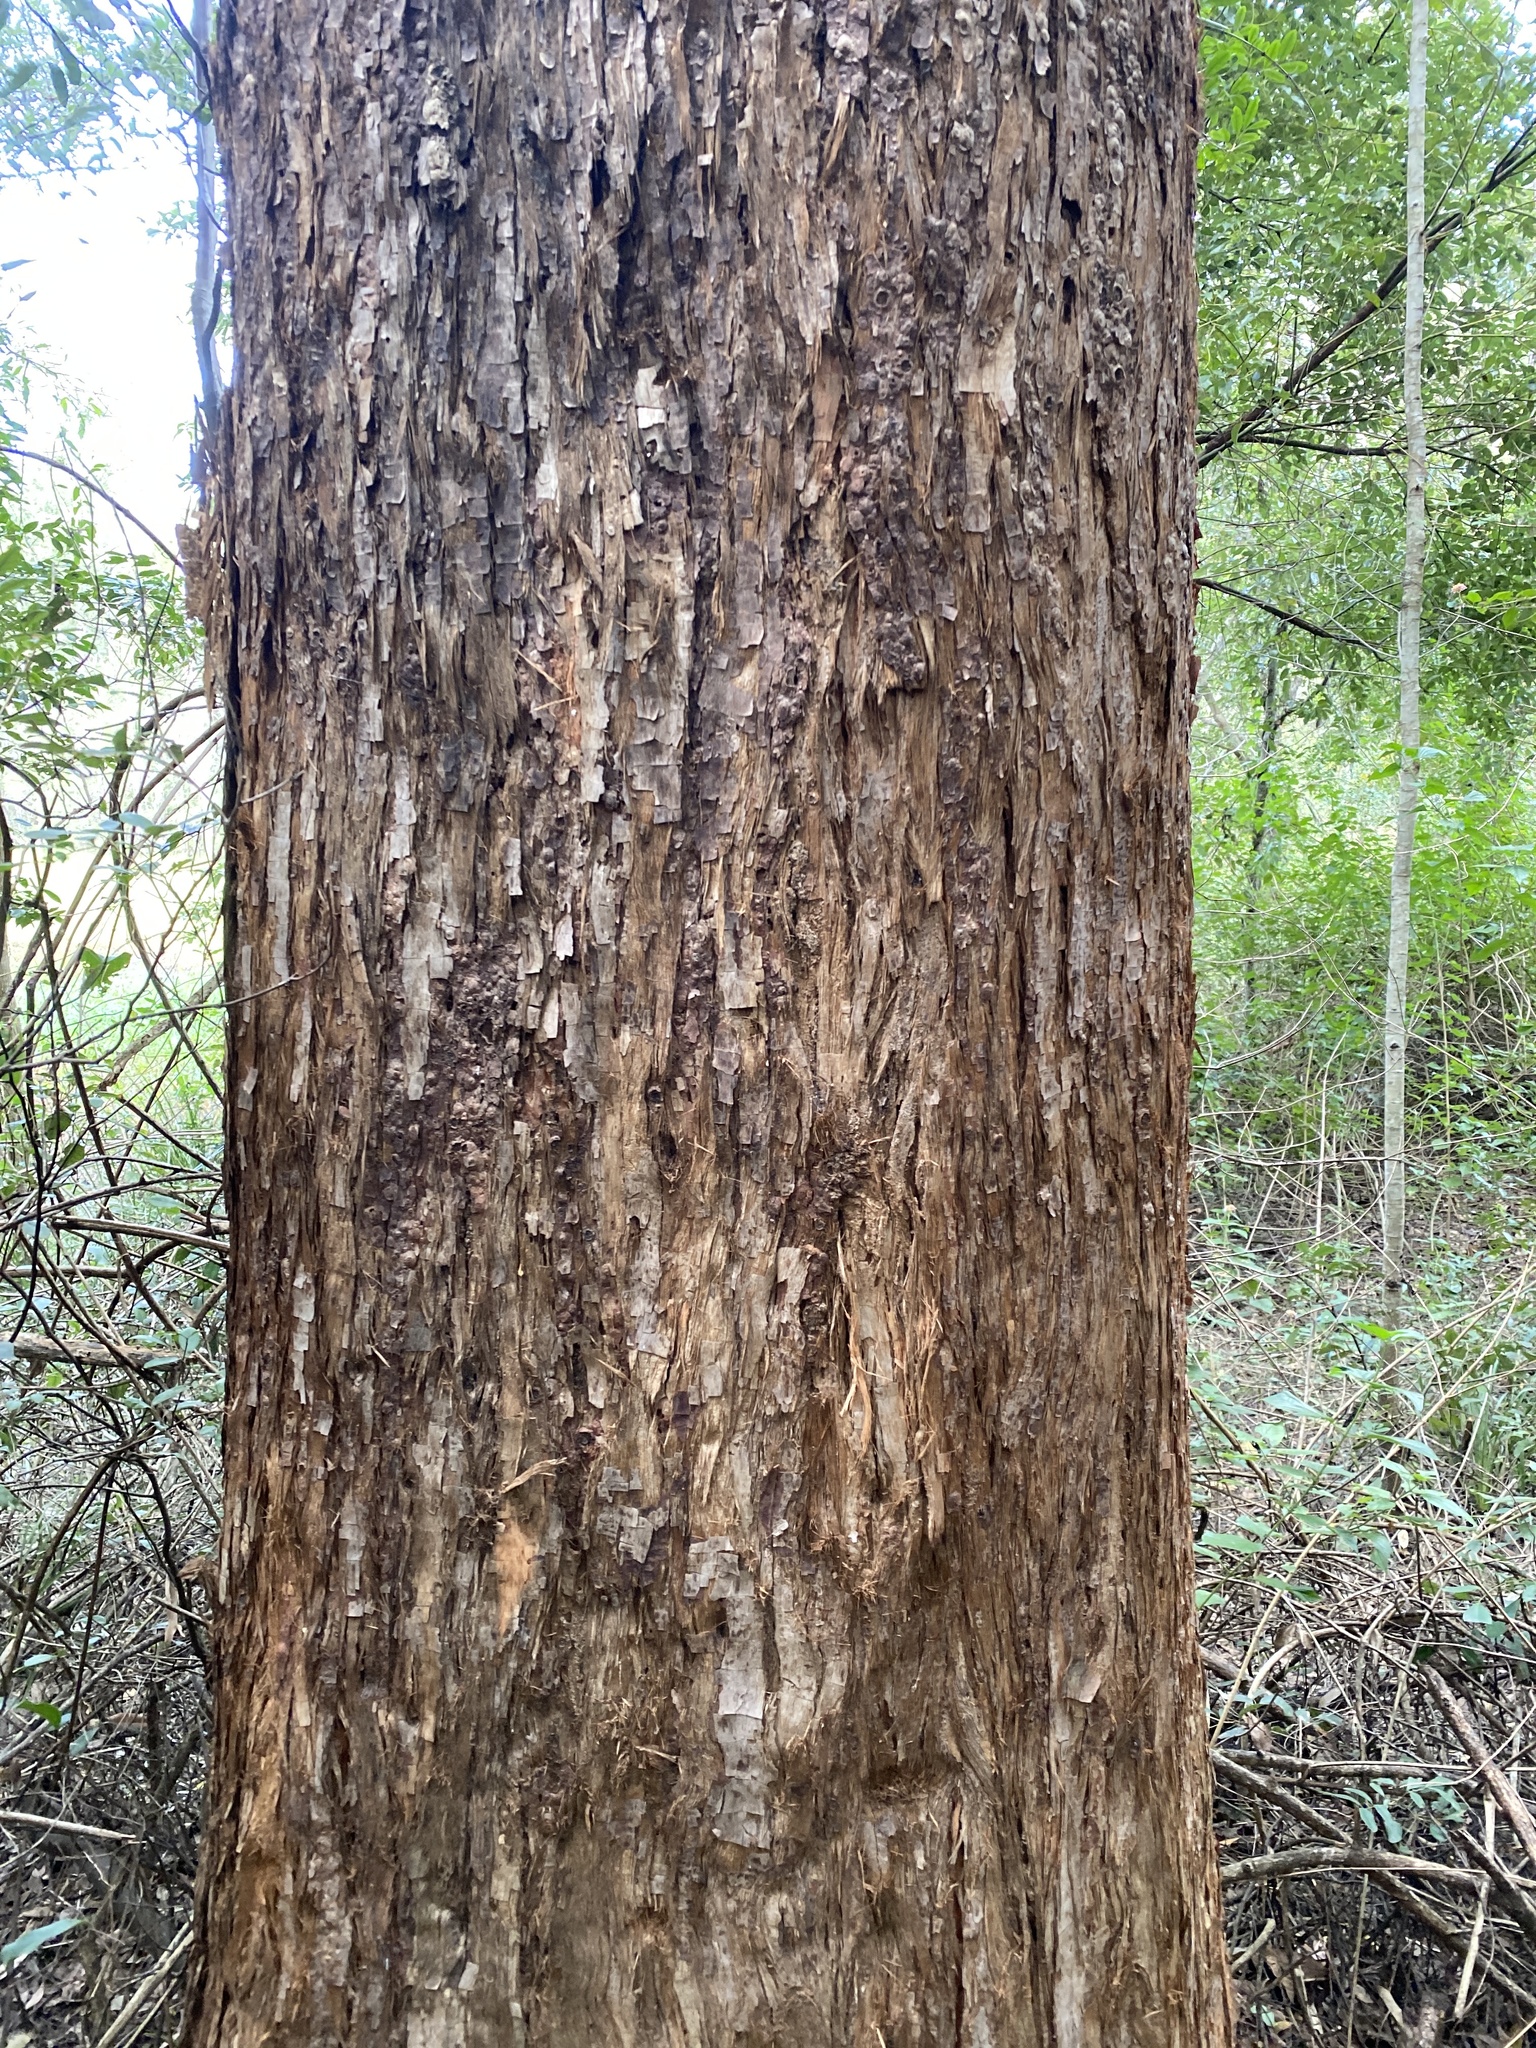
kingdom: Plantae
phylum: Tracheophyta
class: Magnoliopsida
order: Myrtales
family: Myrtaceae
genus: Eucalyptus
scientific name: Eucalyptus microcorys
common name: Tallowwood
